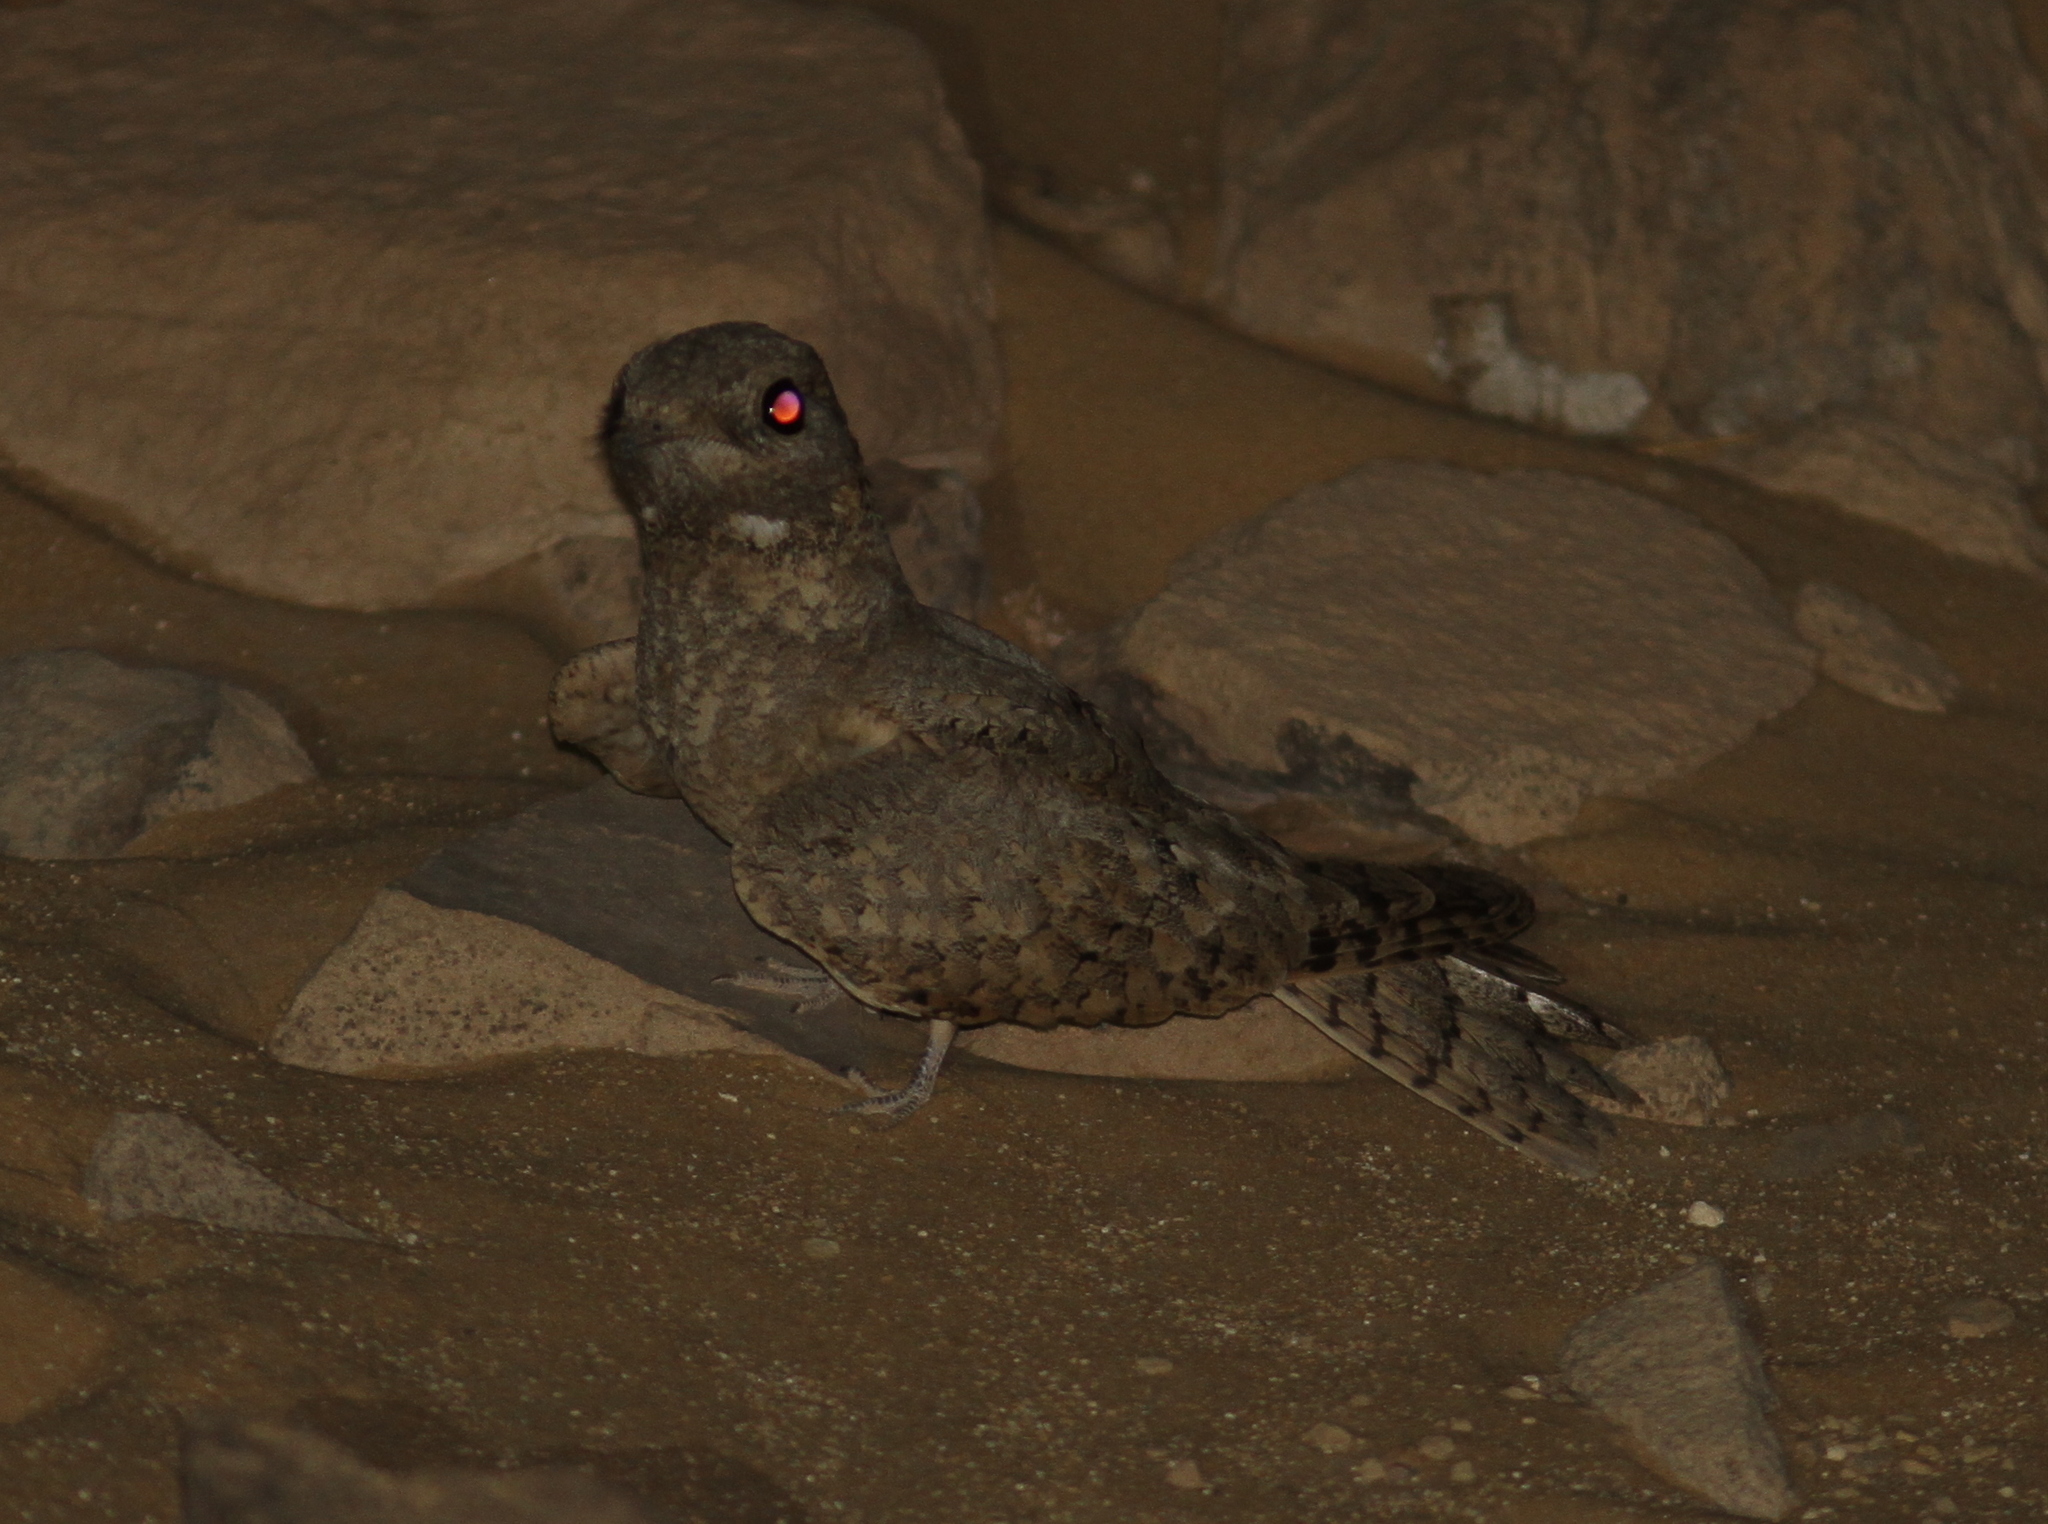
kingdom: Animalia
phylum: Chordata
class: Aves
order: Caprimulgiformes
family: Caprimulgidae
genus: Caprimulgus
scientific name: Caprimulgus aegyptius
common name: Egyptian nightjar
